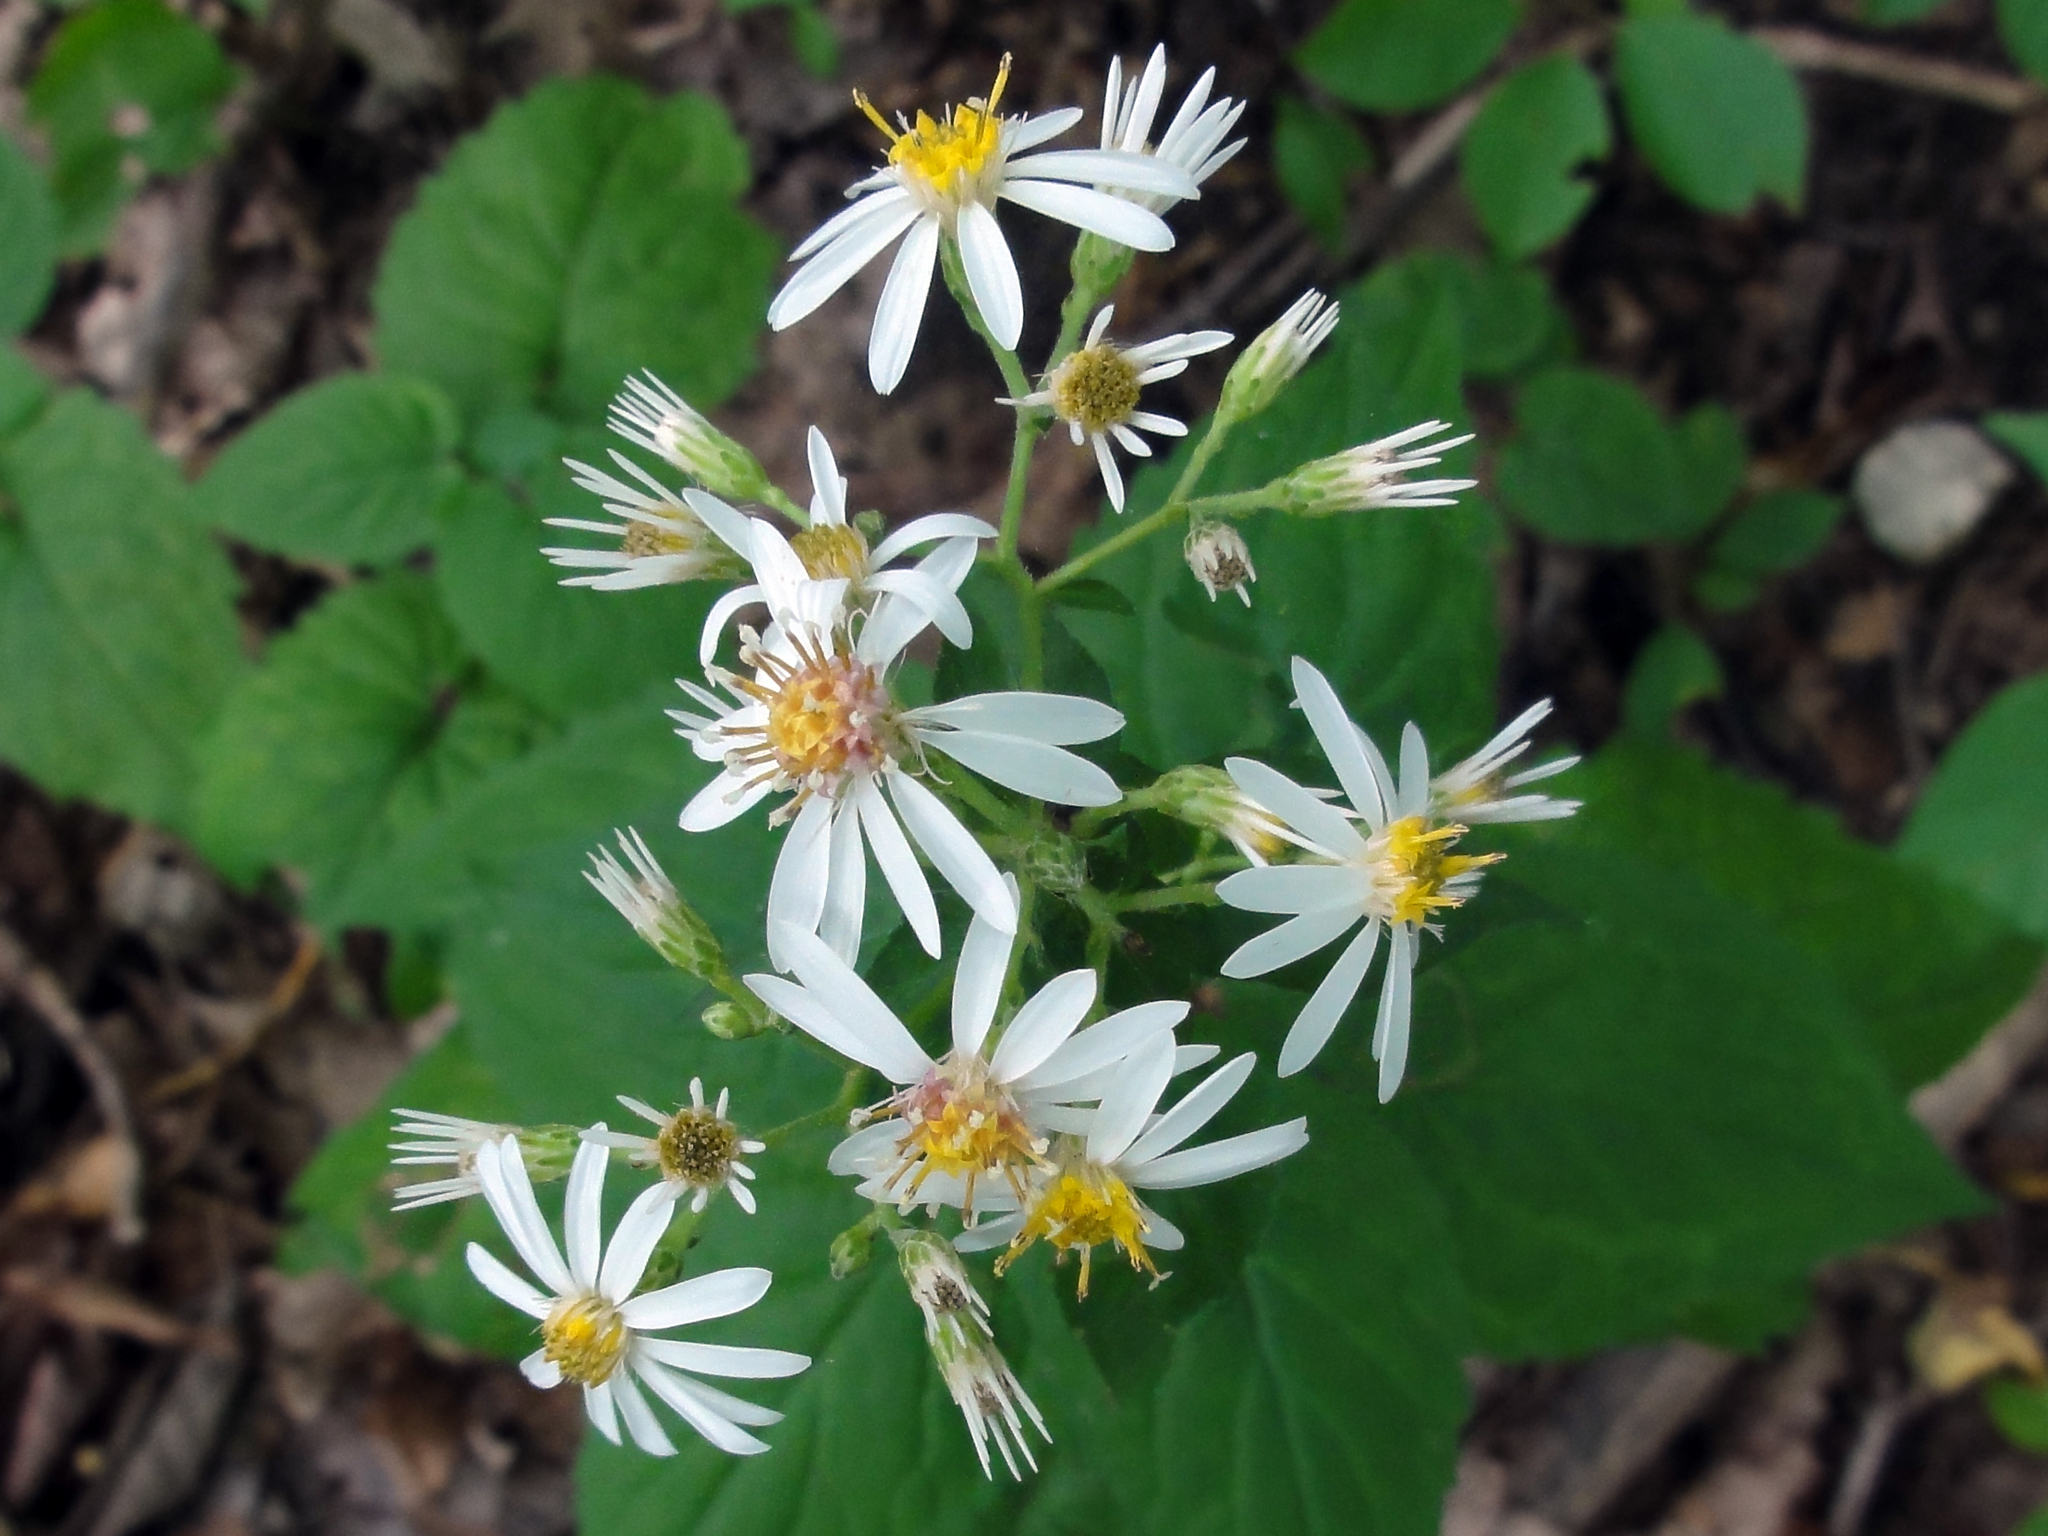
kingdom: Plantae
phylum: Tracheophyta
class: Magnoliopsida
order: Asterales
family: Asteraceae
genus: Eurybia
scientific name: Eurybia divaricata
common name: White wood aster
